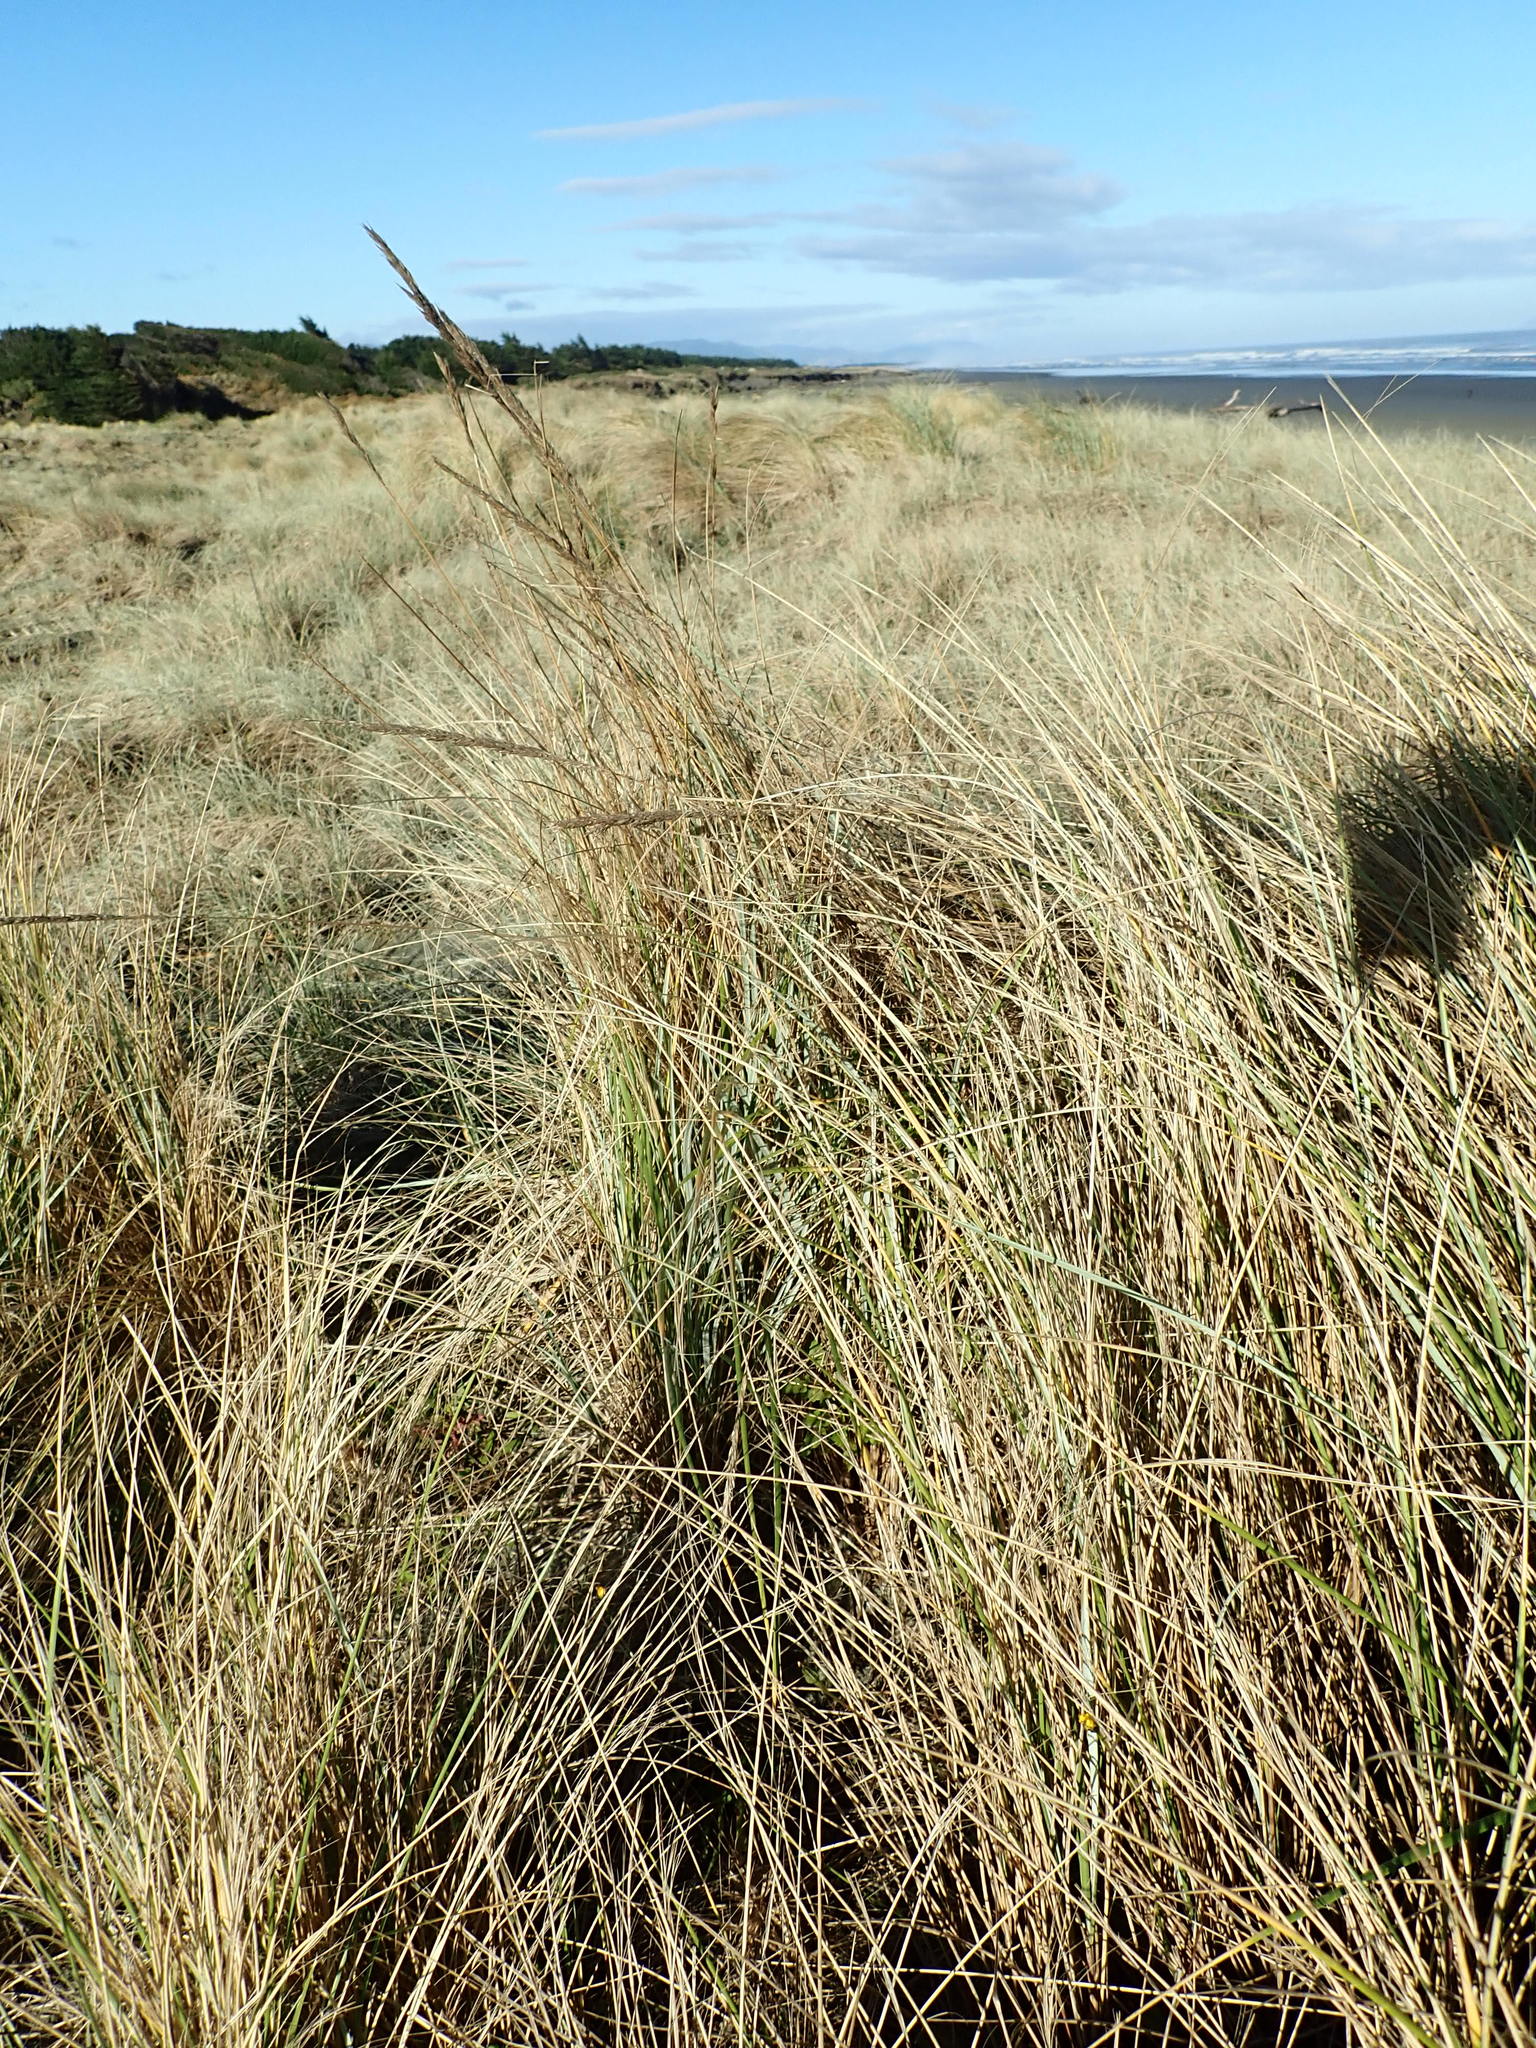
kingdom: Plantae
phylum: Tracheophyta
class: Liliopsida
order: Poales
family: Poaceae
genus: Calamagrostis
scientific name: Calamagrostis arenaria
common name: European beachgrass
